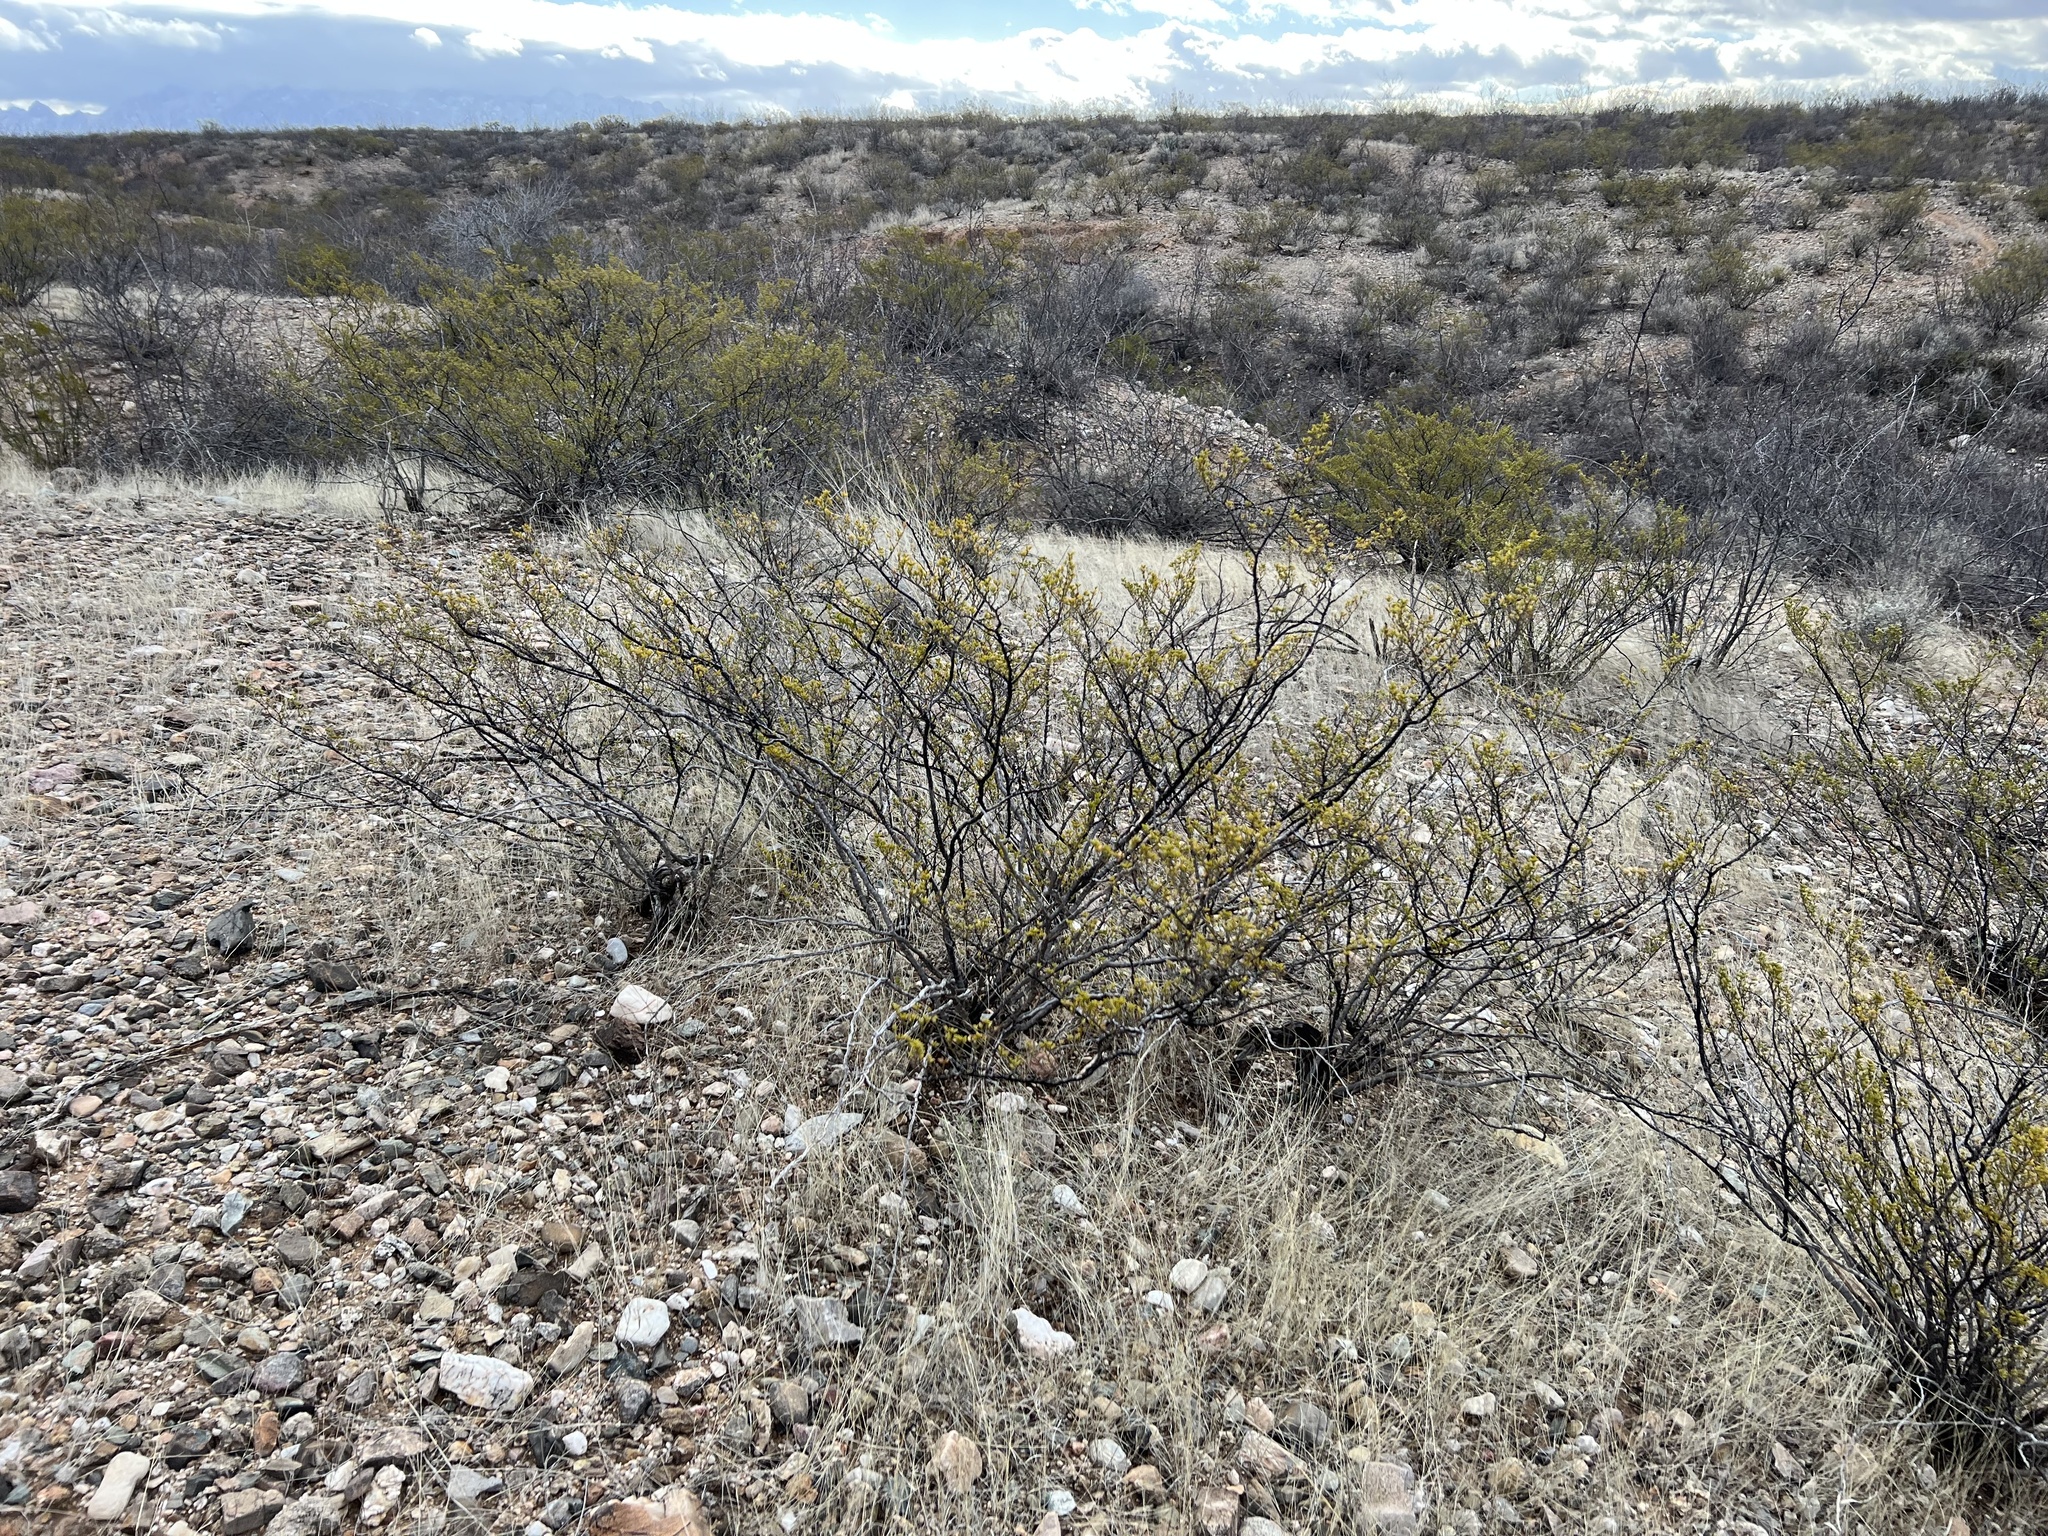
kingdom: Plantae
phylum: Tracheophyta
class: Magnoliopsida
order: Zygophyllales
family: Zygophyllaceae
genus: Larrea
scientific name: Larrea tridentata
